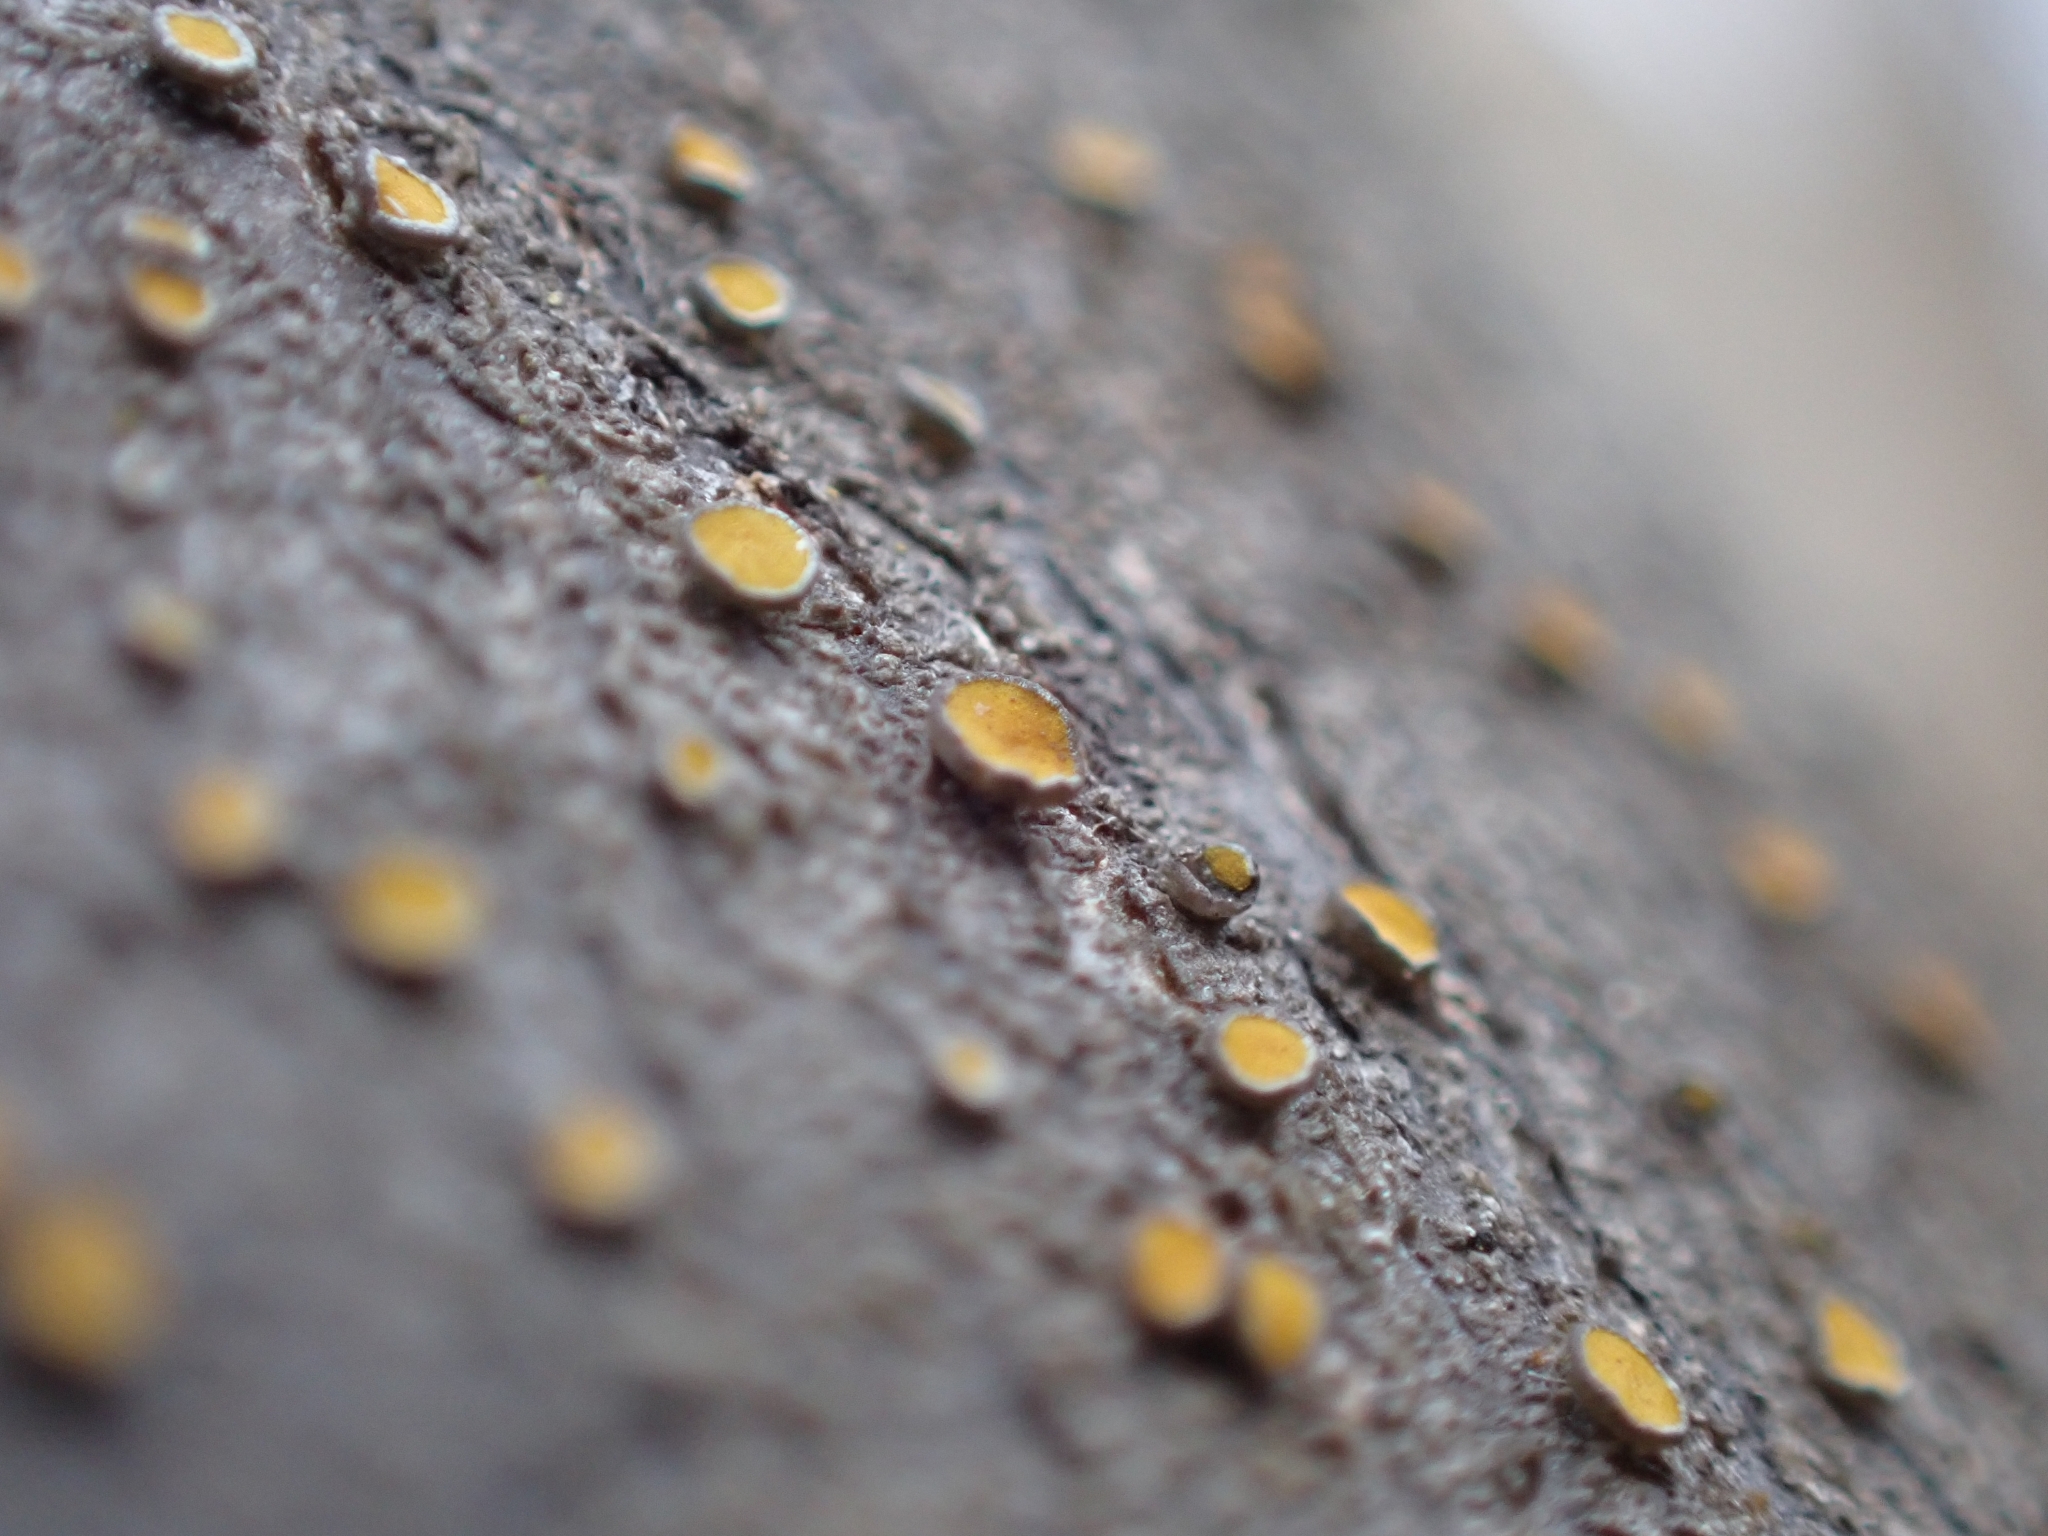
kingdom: Fungi
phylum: Ascomycota
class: Lecanoromycetes
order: Teloschistales
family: Teloschistaceae
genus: Caloplaca
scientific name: Caloplaca cerina
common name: Gray-rimmed firedot lichen
